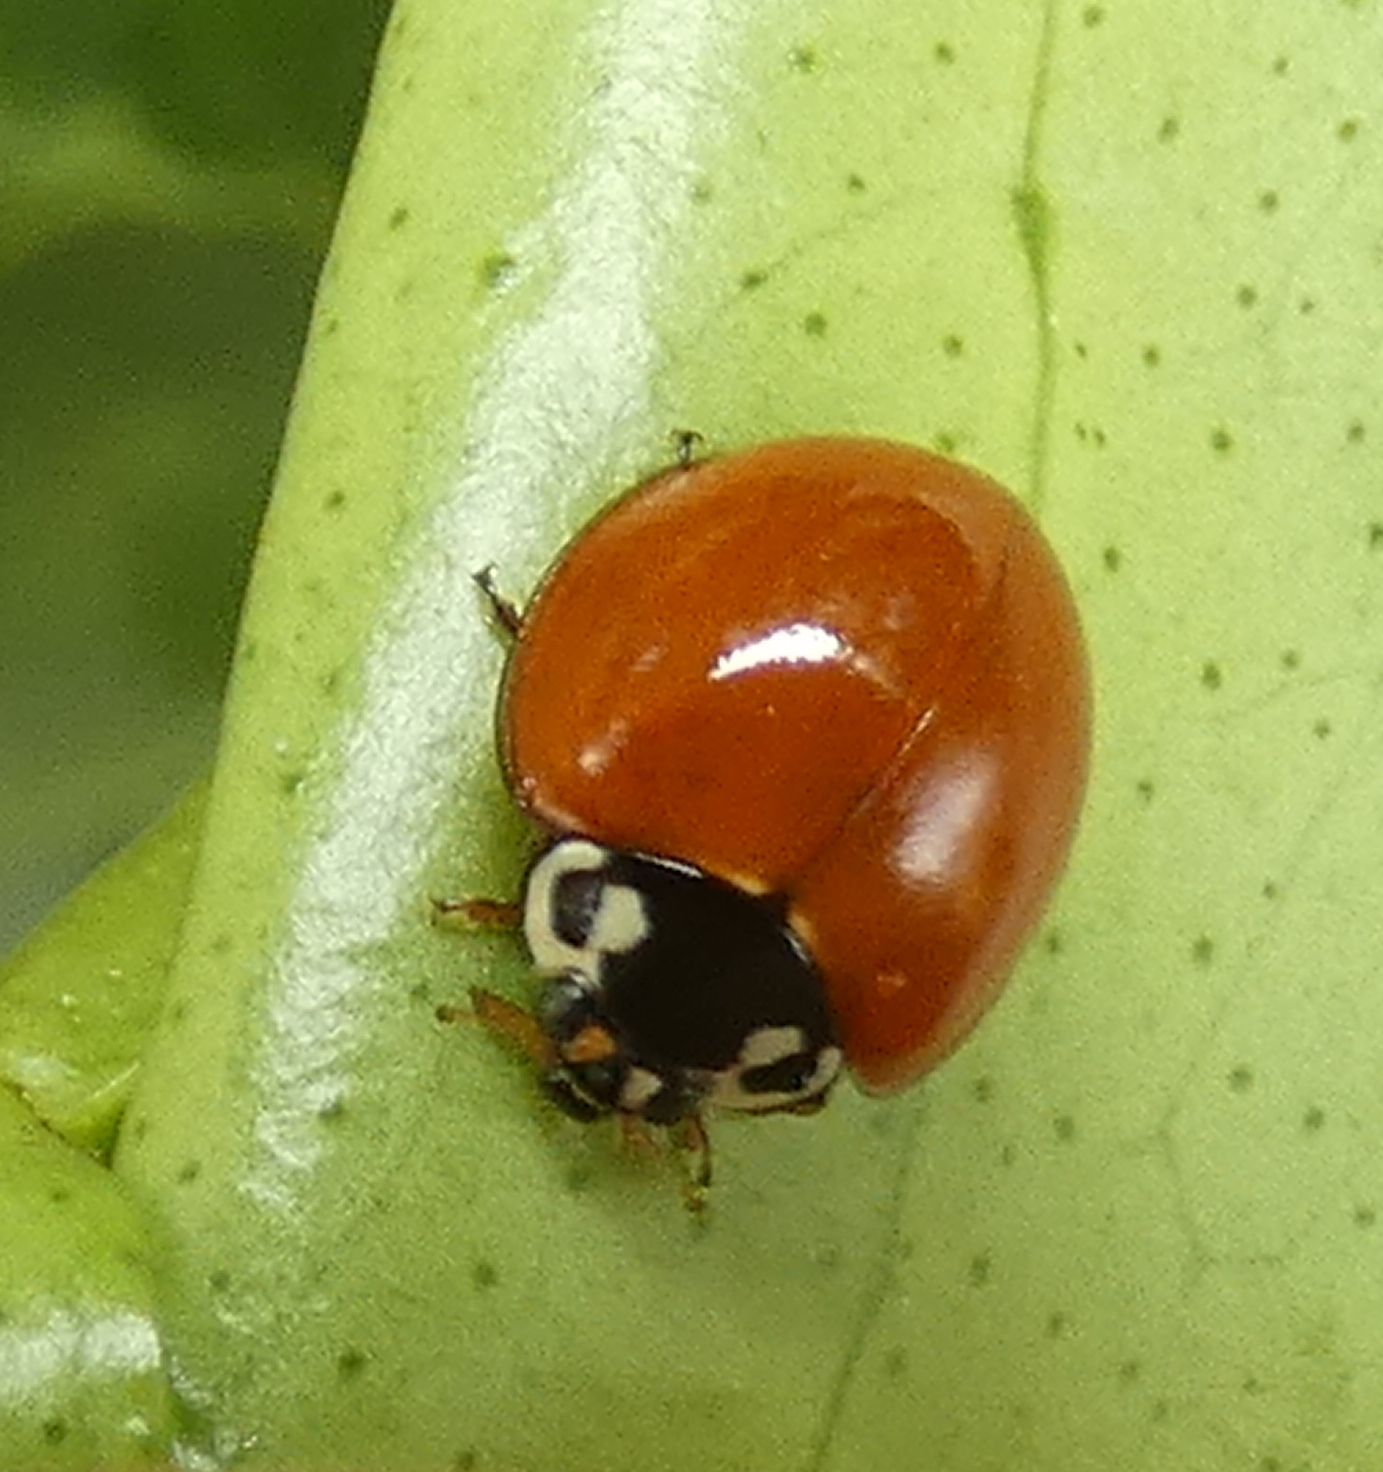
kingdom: Animalia
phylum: Arthropoda
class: Insecta
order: Coleoptera
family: Coccinellidae
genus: Cycloneda
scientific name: Cycloneda sanguinea
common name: Ladybird beetle
